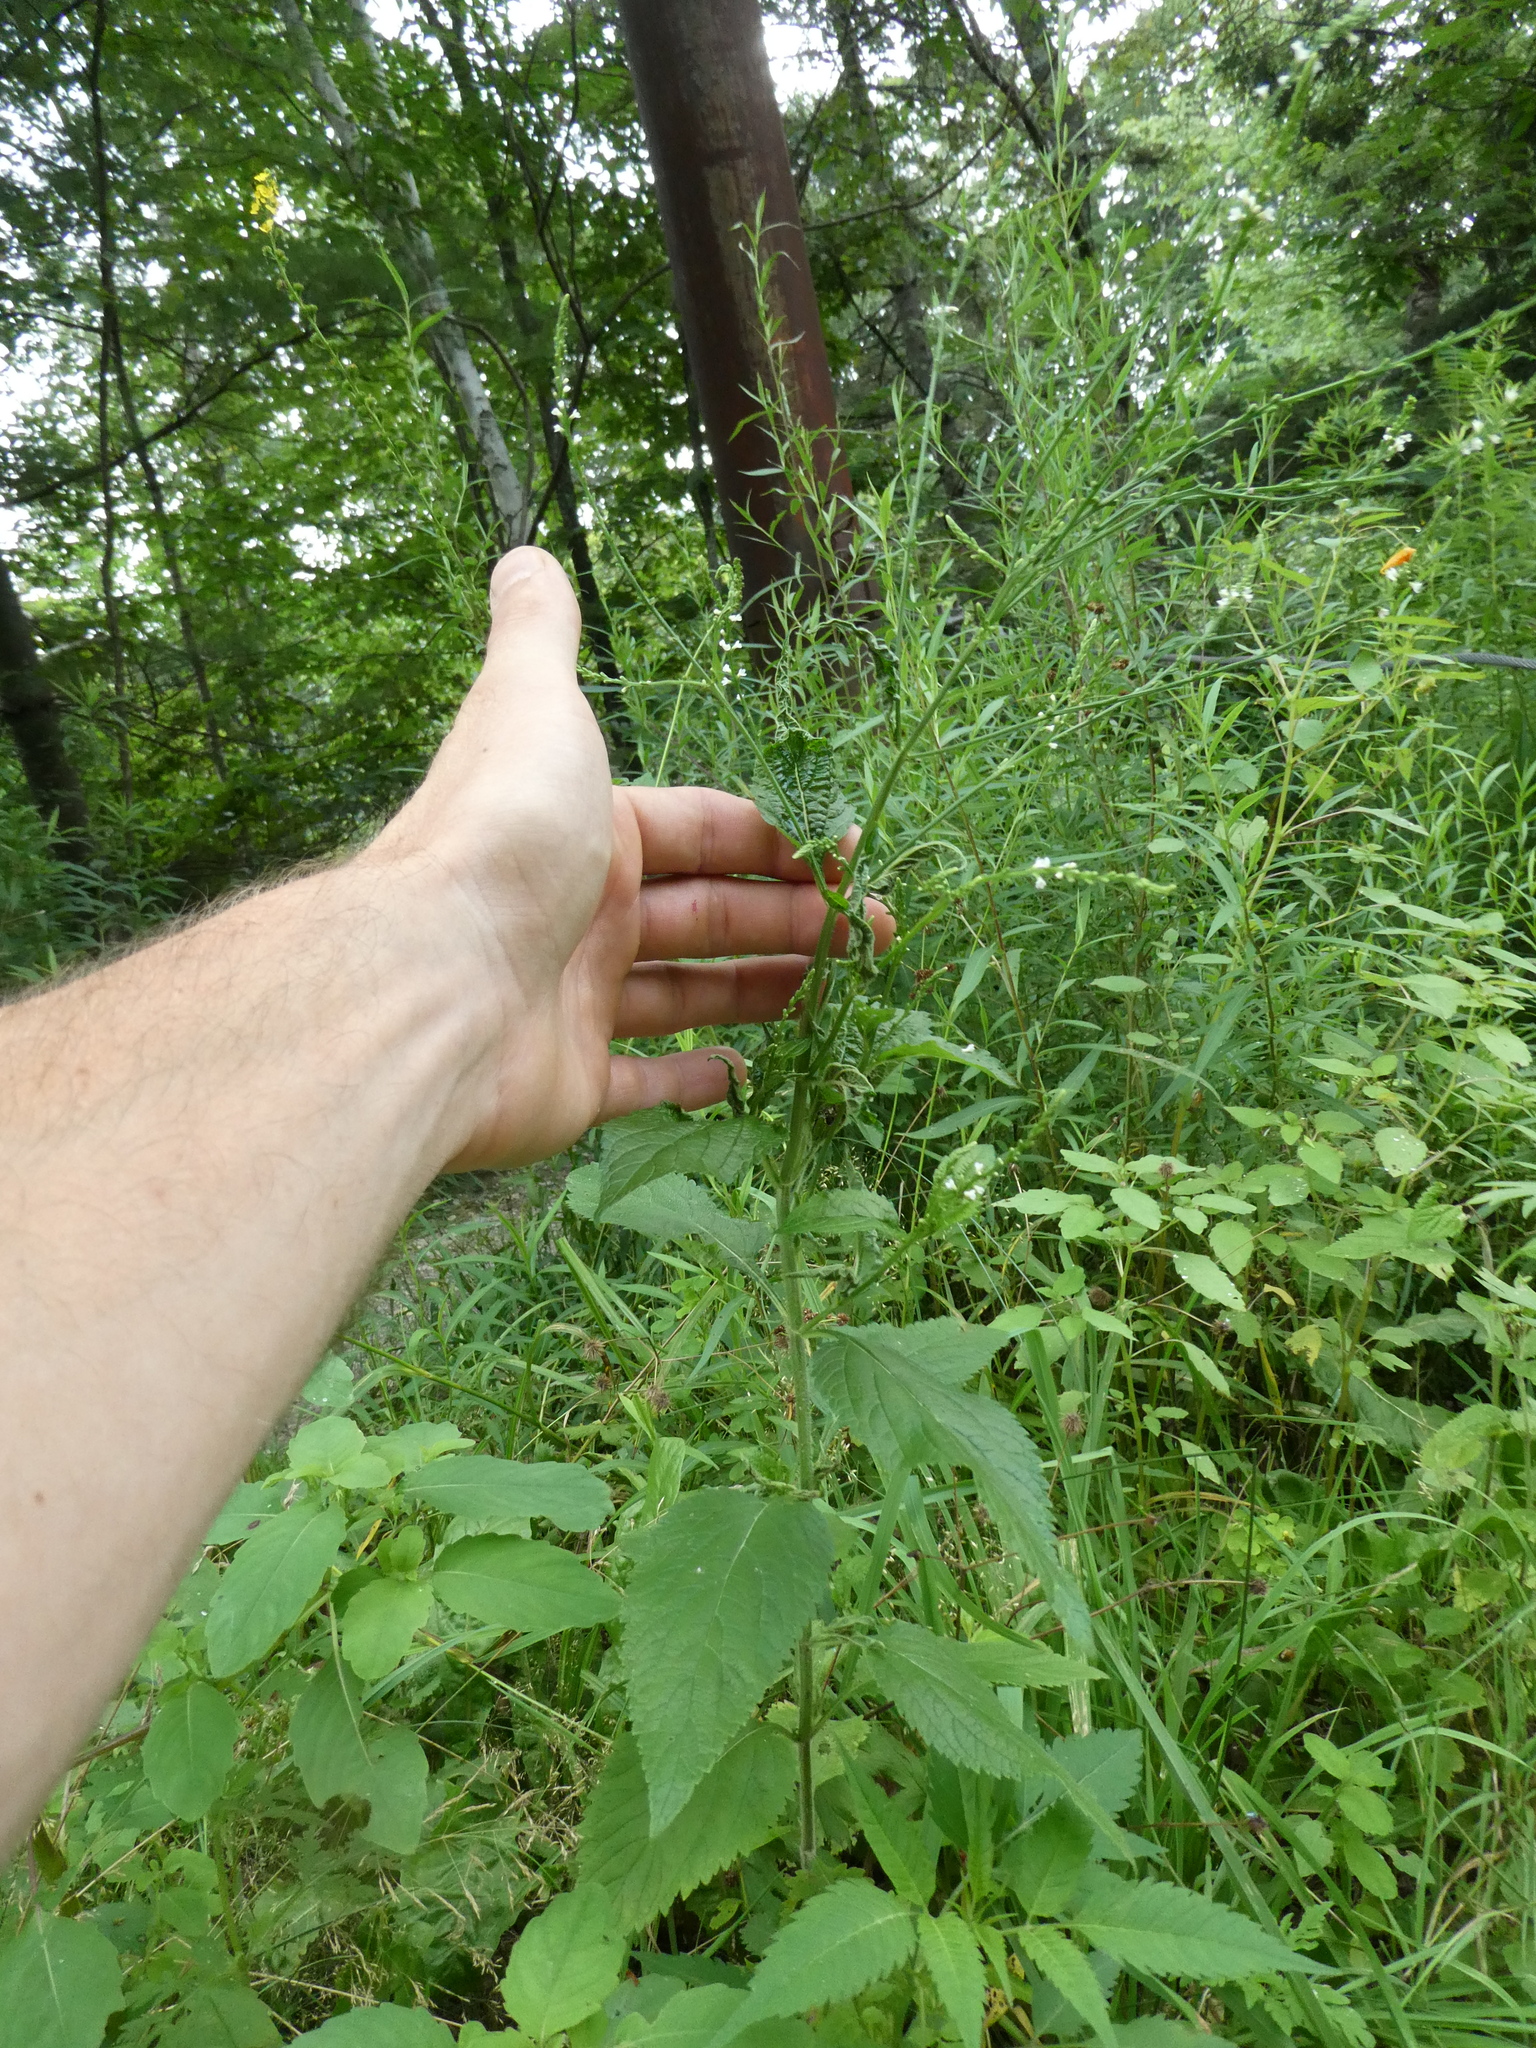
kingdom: Plantae
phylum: Tracheophyta
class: Magnoliopsida
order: Lamiales
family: Verbenaceae
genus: Verbena
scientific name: Verbena urticifolia
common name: Nettle-leaved vervain
